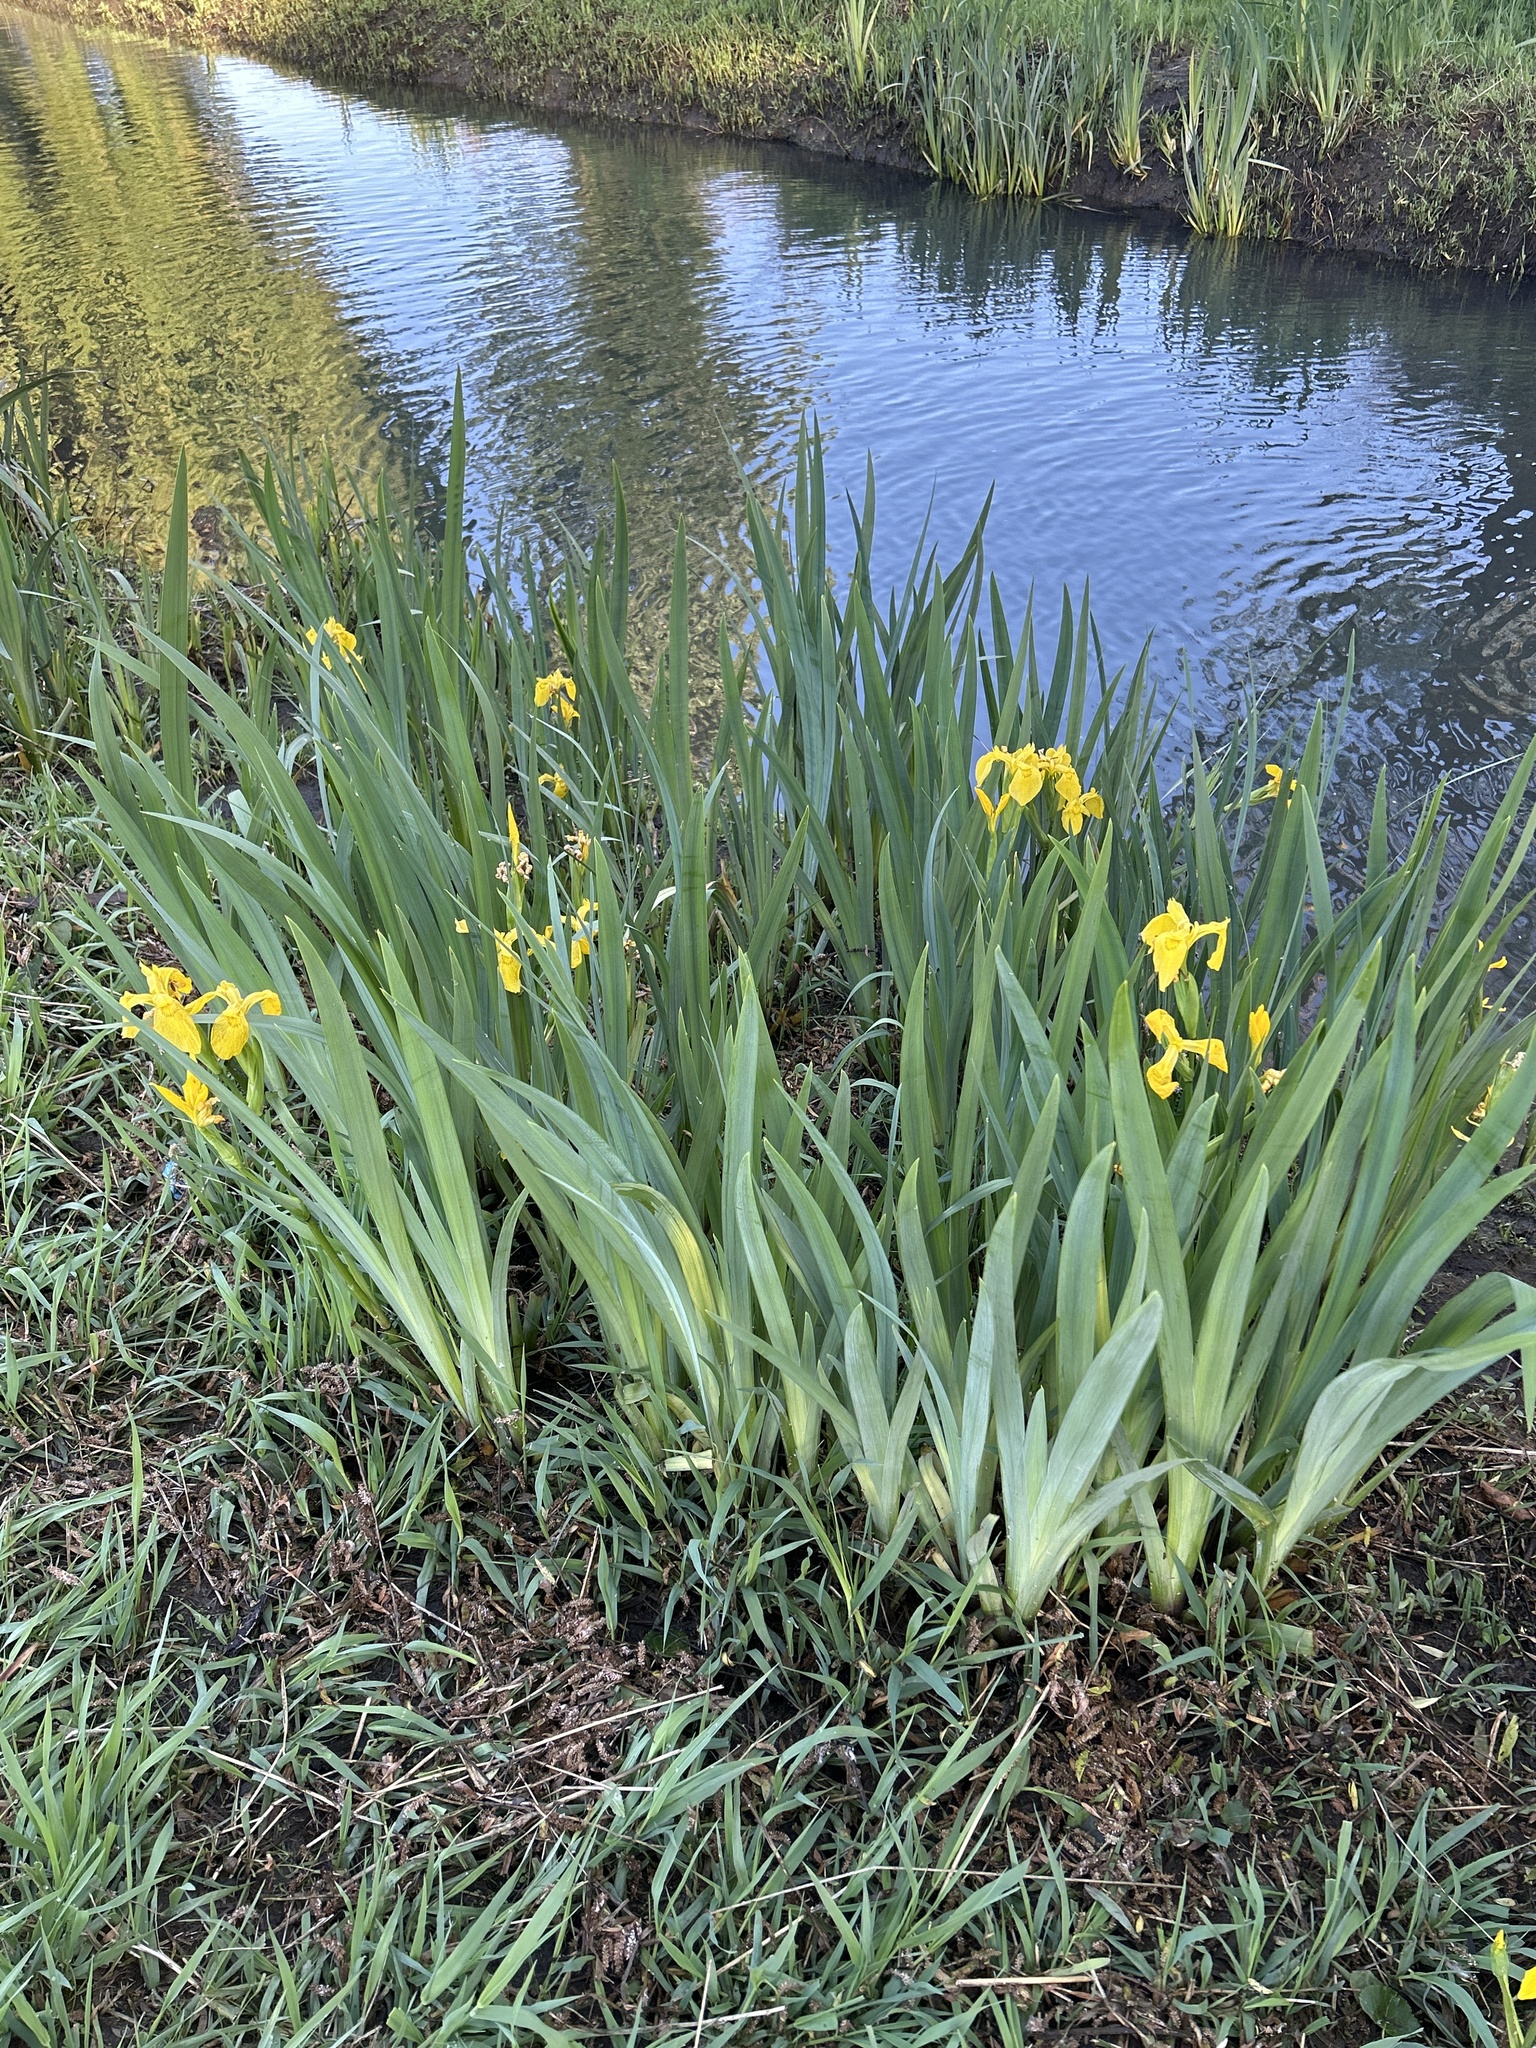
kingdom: Plantae
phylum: Tracheophyta
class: Liliopsida
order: Asparagales
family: Iridaceae
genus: Iris
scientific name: Iris pseudacorus
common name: Yellow flag
